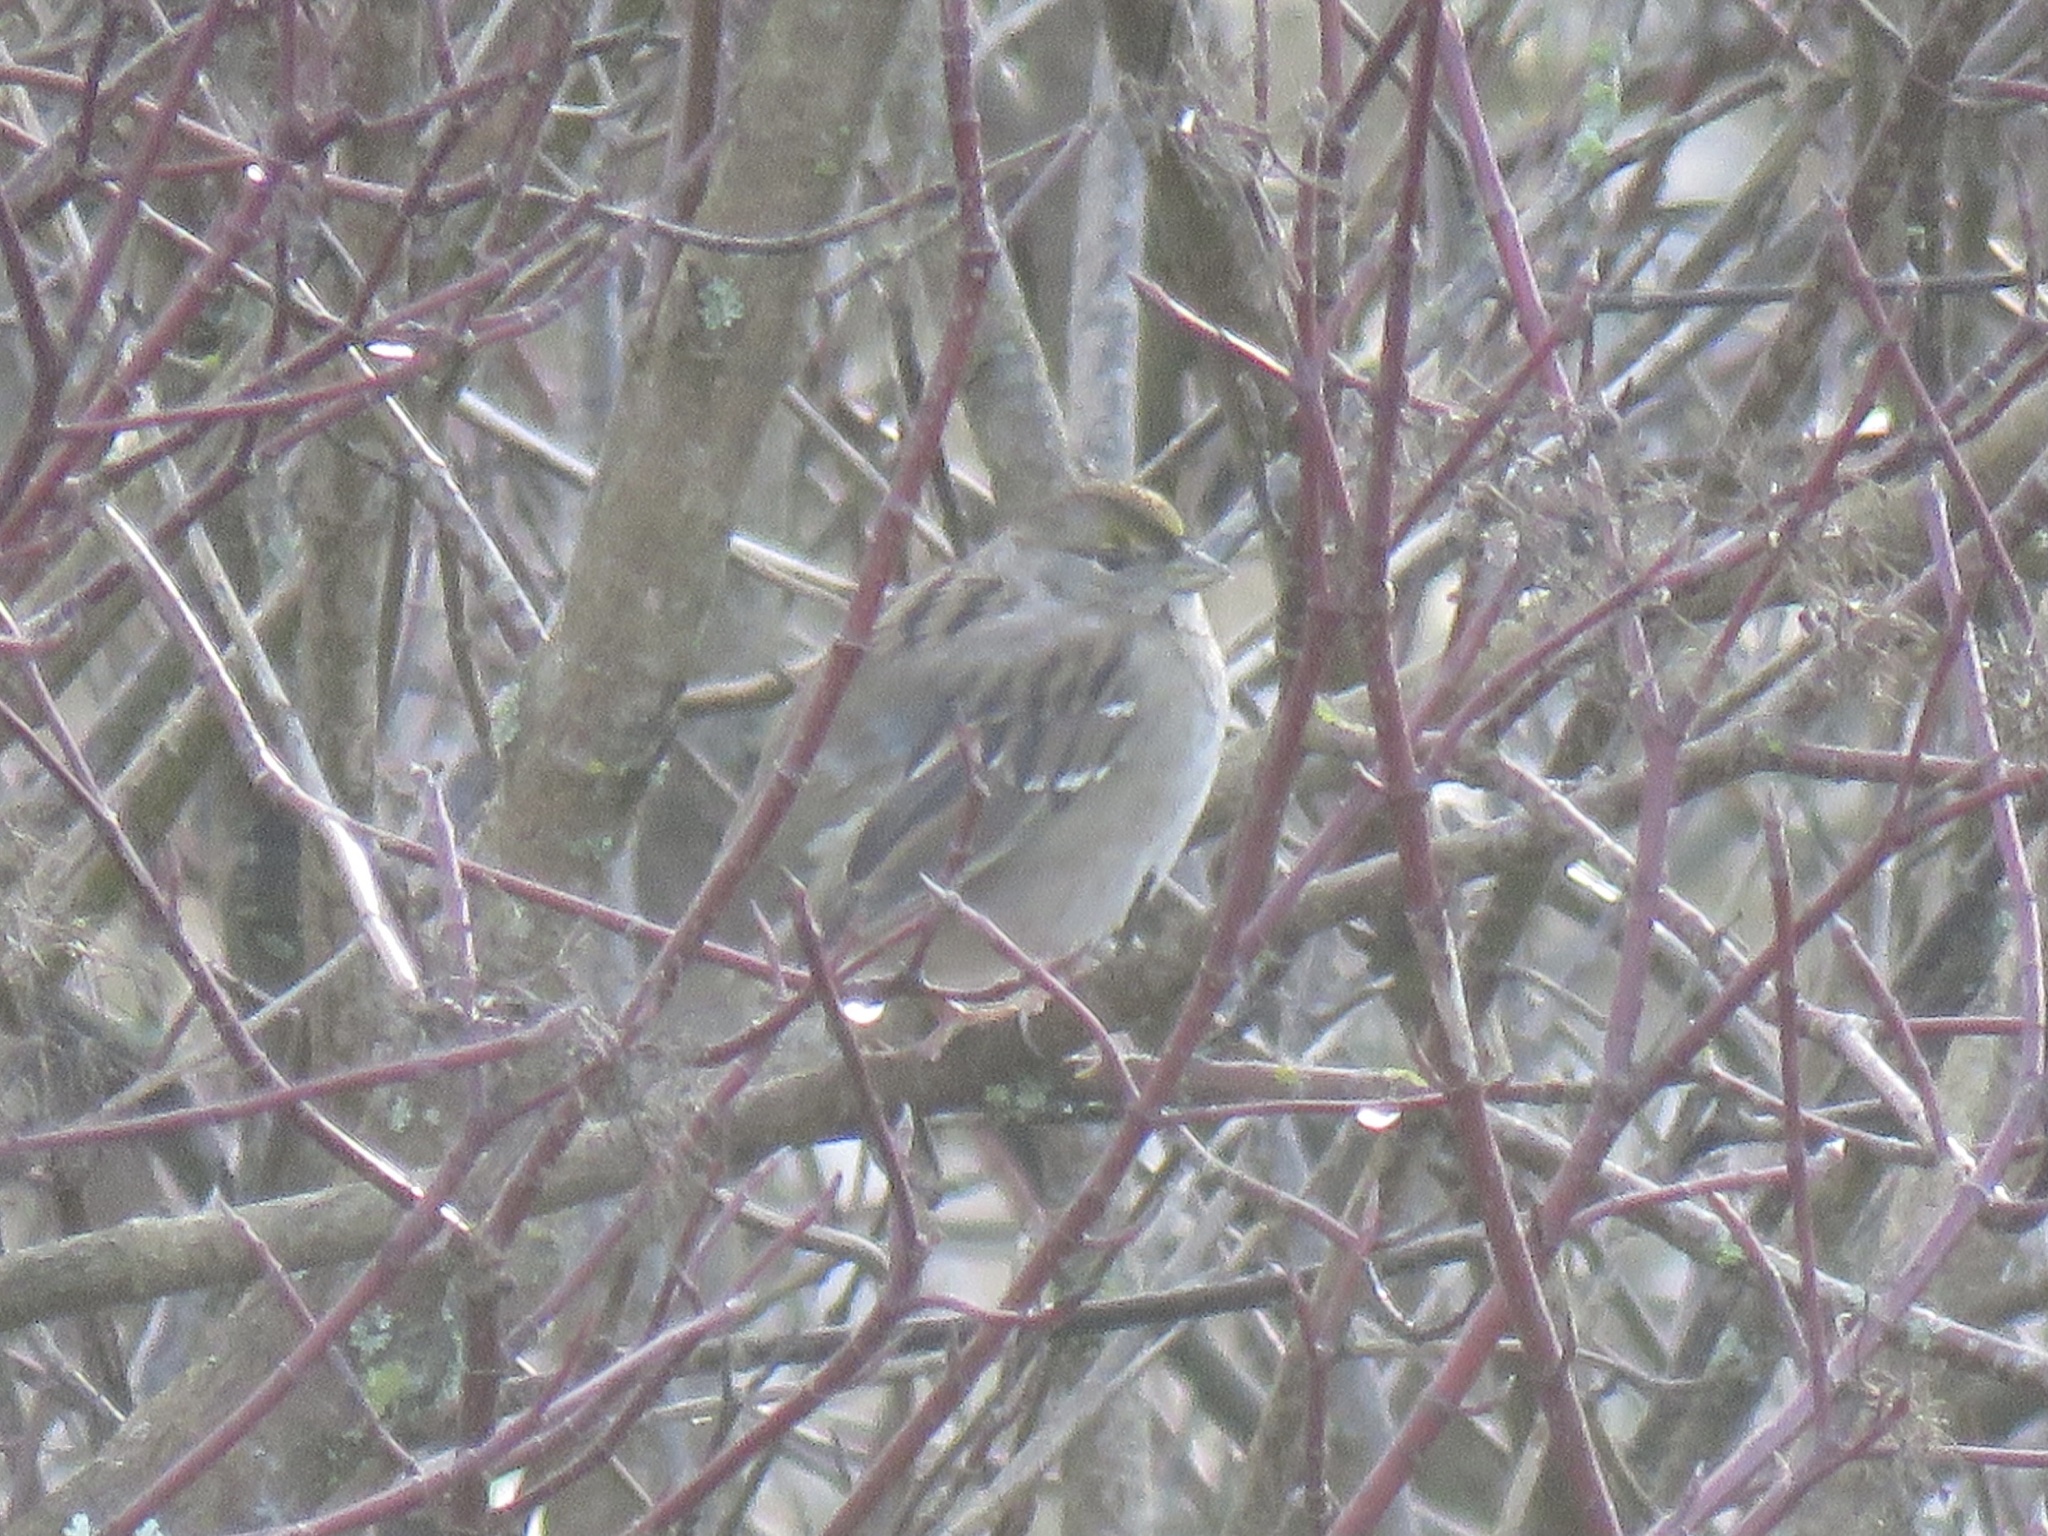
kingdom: Animalia
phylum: Chordata
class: Aves
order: Passeriformes
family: Passerellidae
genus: Zonotrichia
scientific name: Zonotrichia atricapilla
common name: Golden-crowned sparrow
